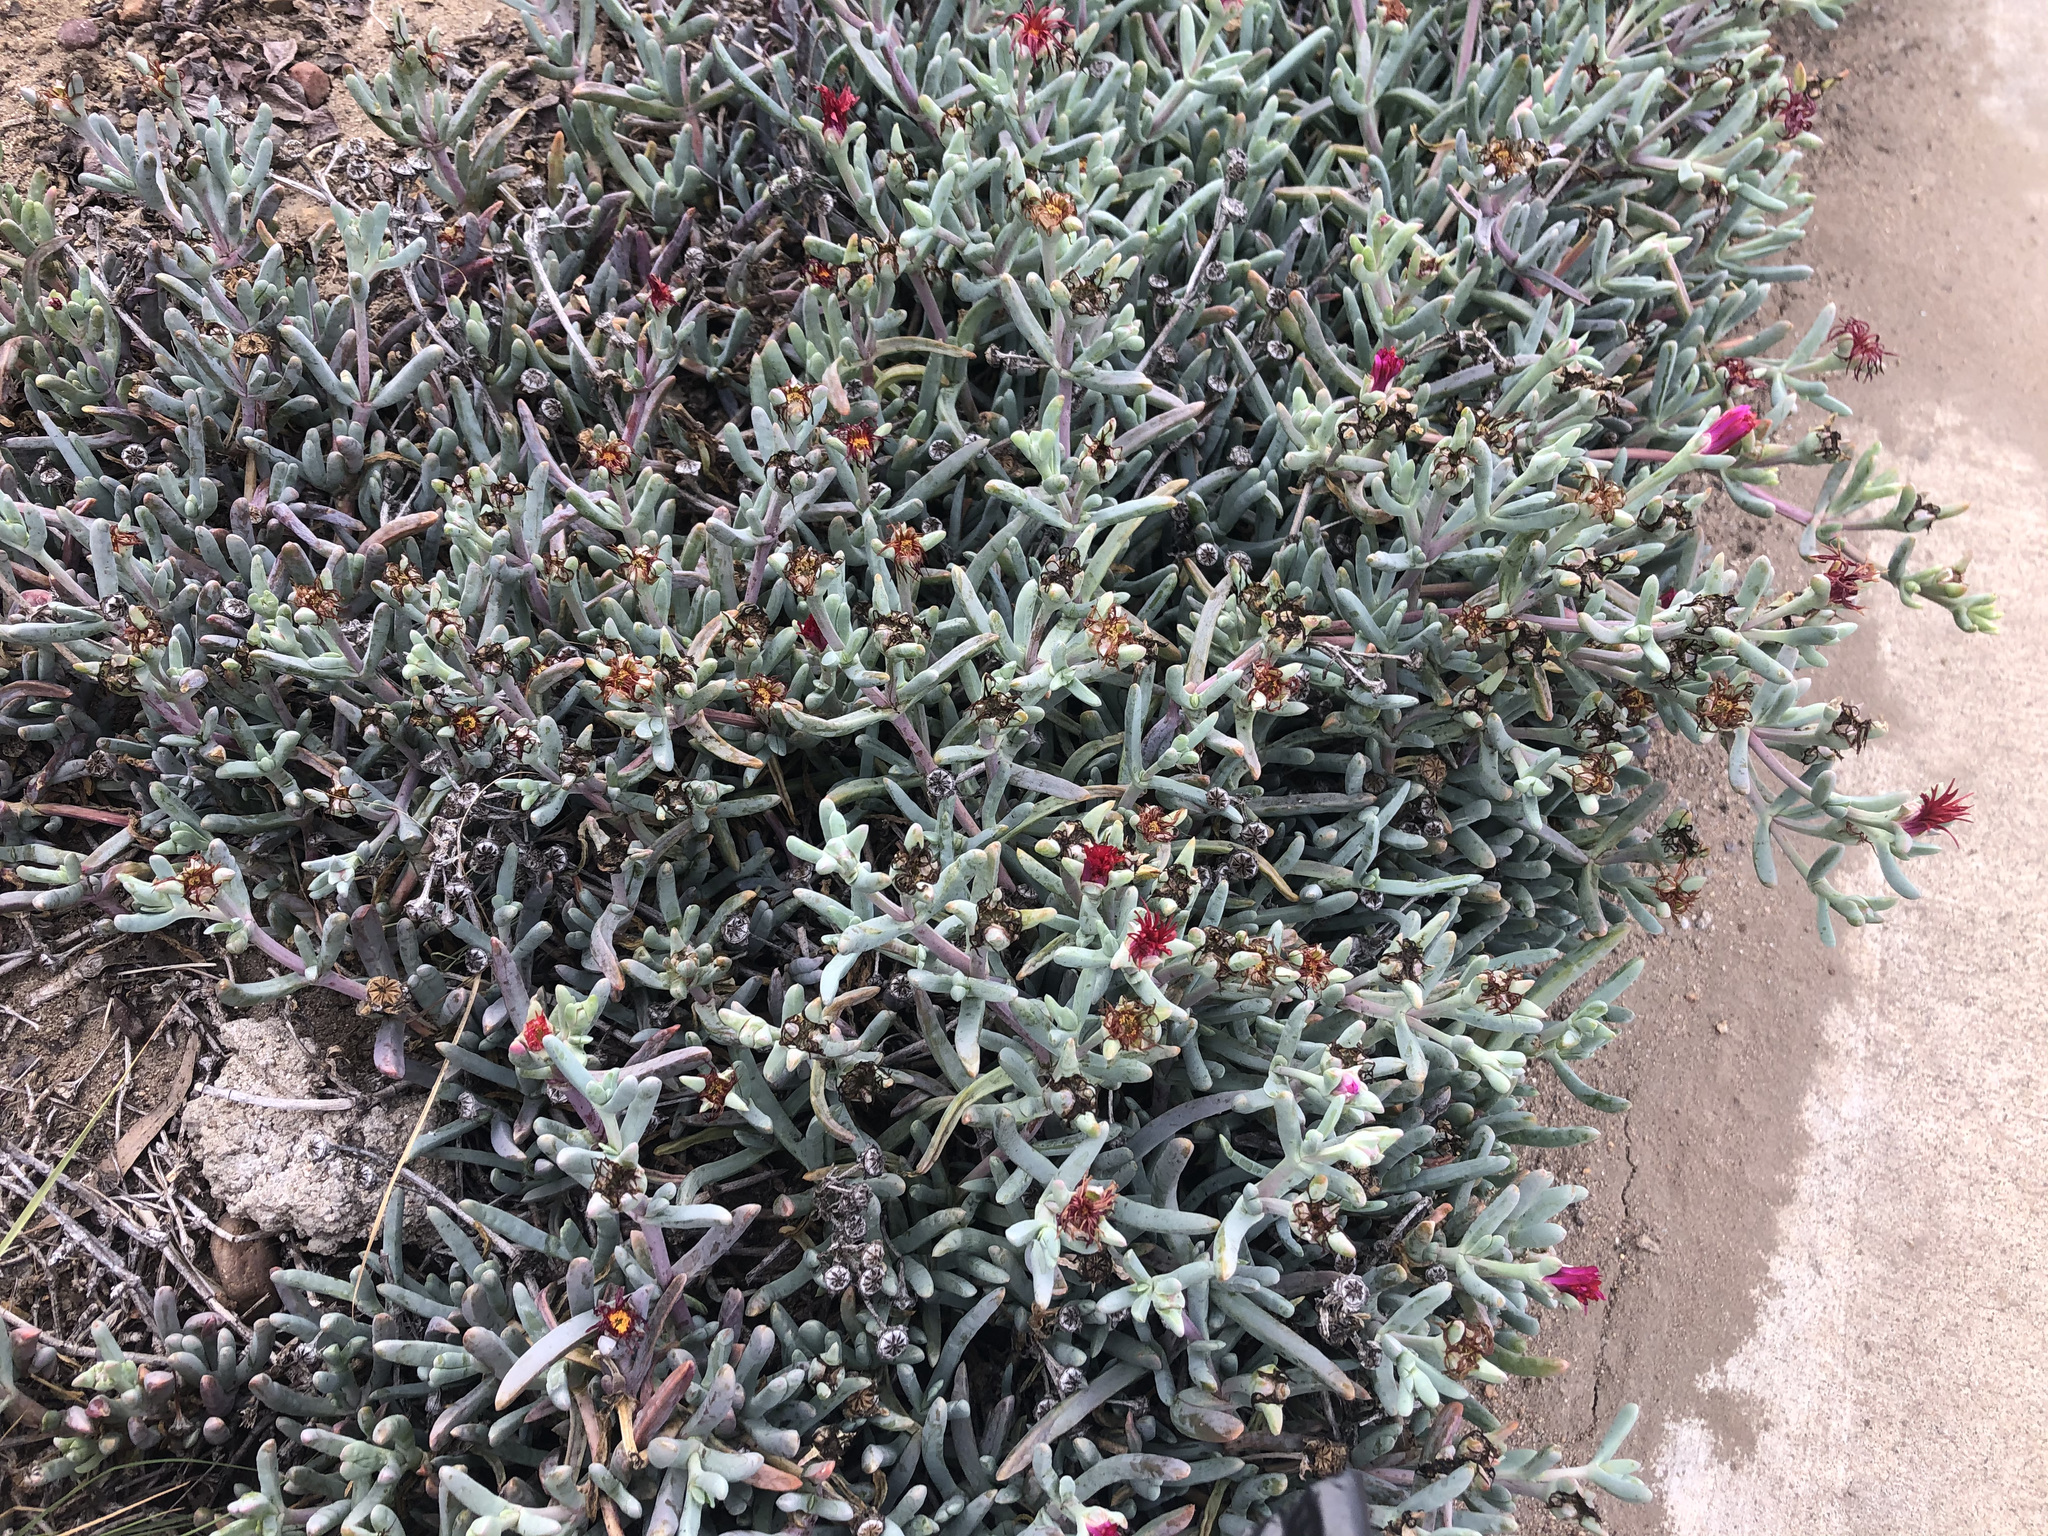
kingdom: Plantae
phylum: Tracheophyta
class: Magnoliopsida
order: Caryophyllales
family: Aizoaceae
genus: Malephora
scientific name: Malephora crocea
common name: Coppery mesemb
